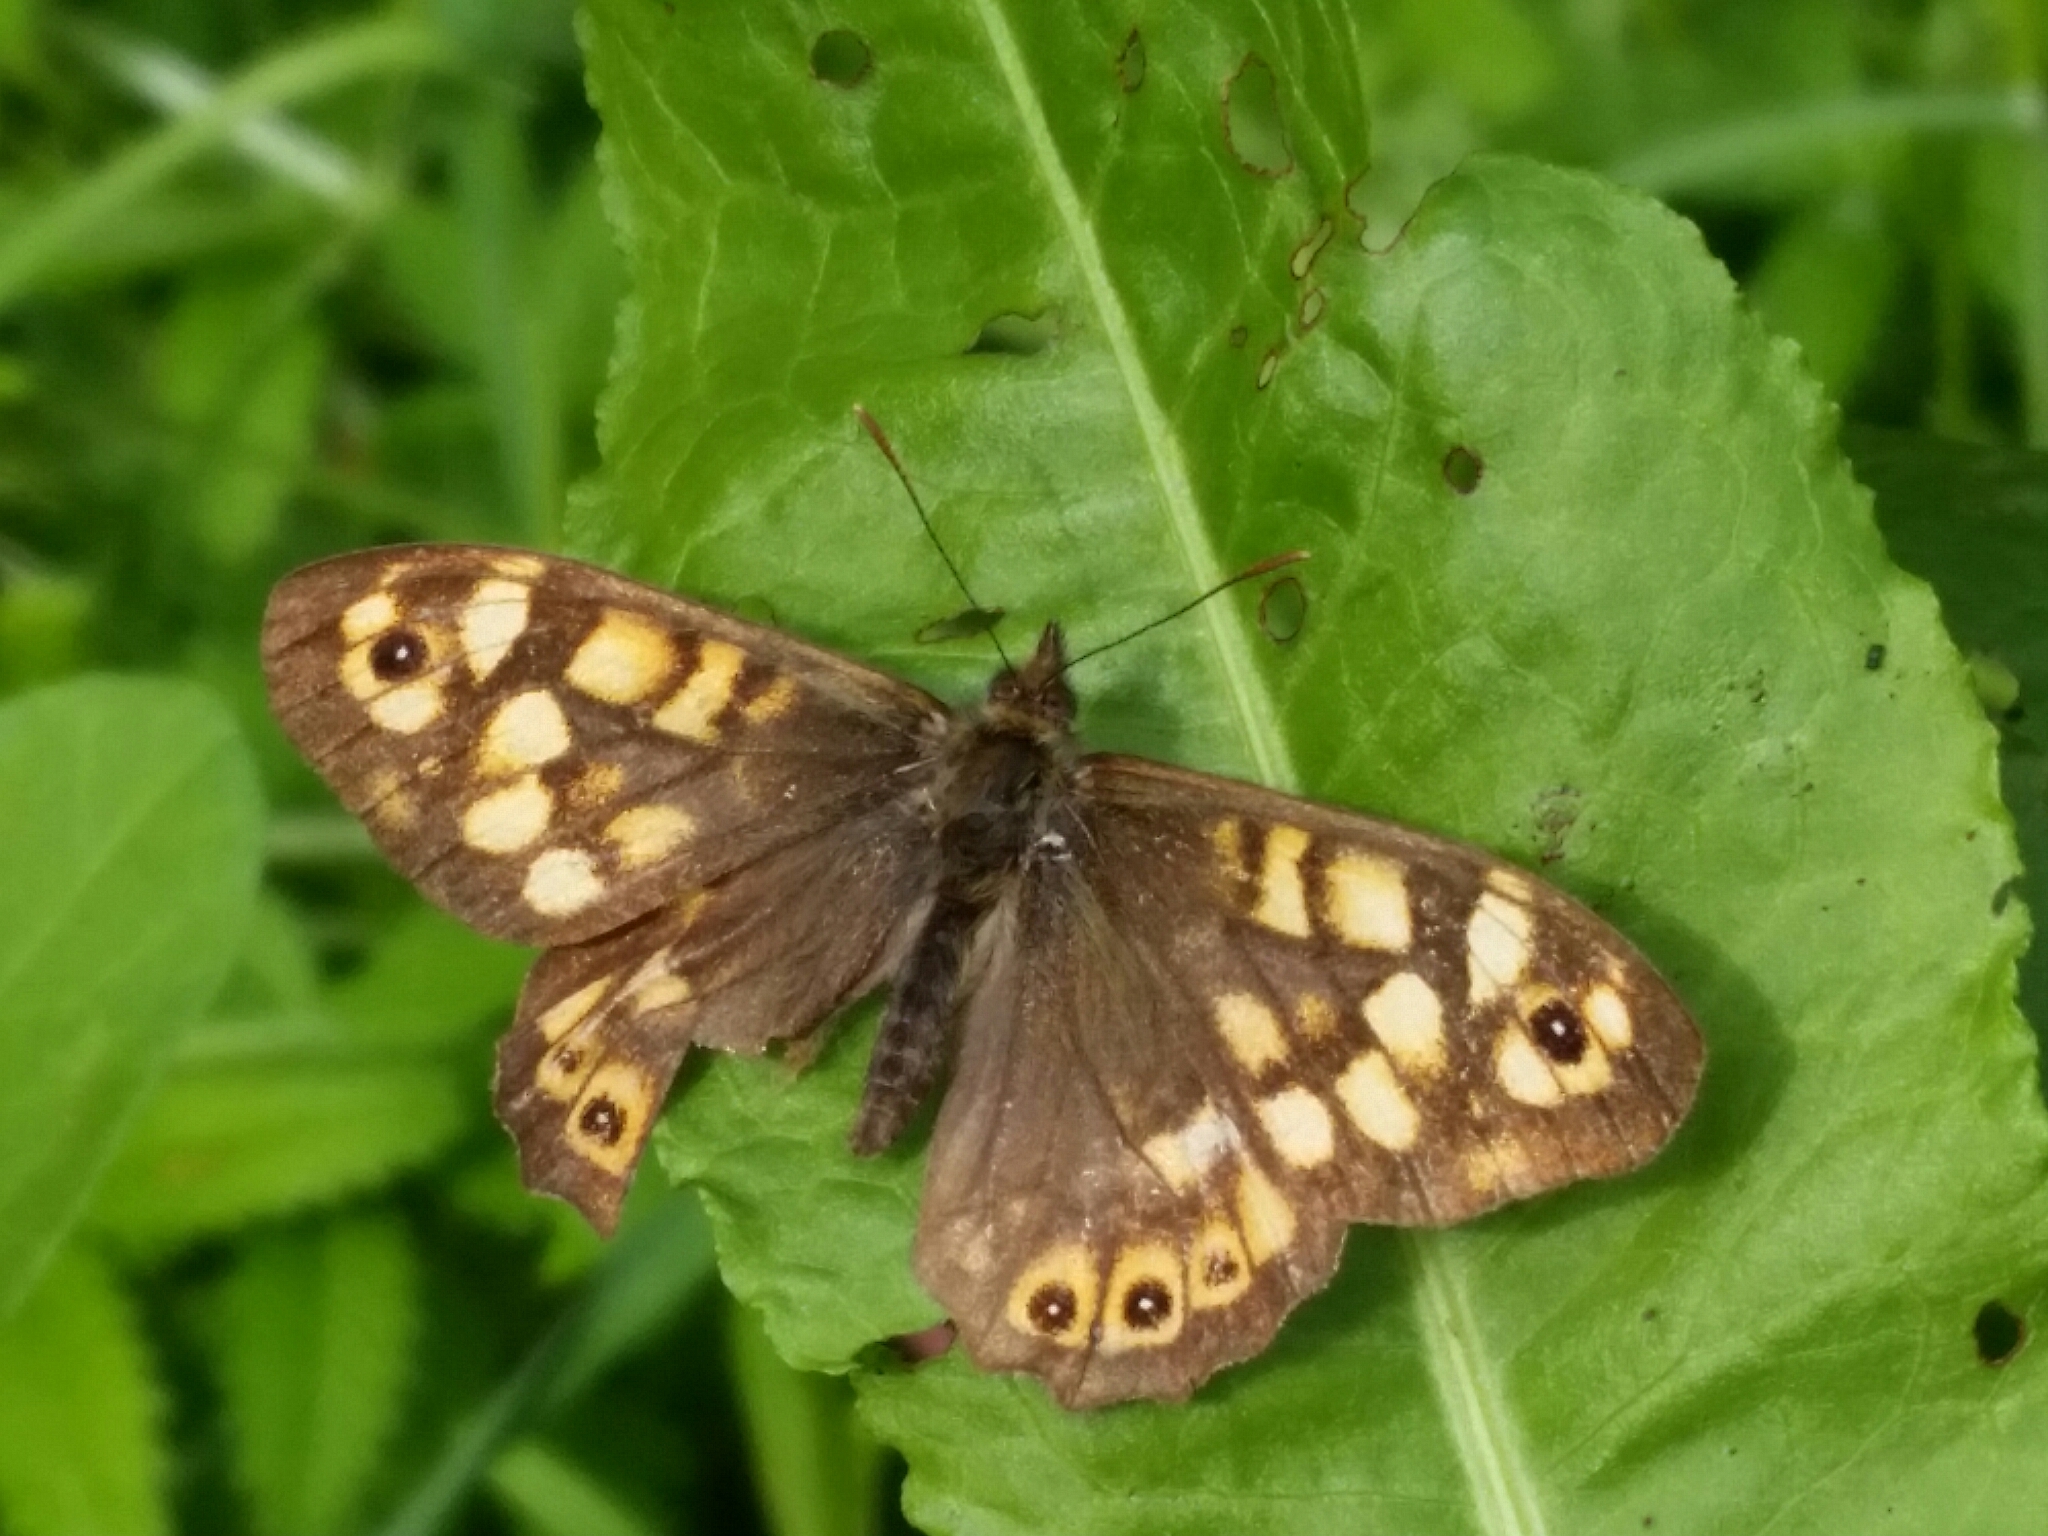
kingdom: Animalia
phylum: Arthropoda
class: Insecta
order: Lepidoptera
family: Nymphalidae
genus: Pararge
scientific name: Pararge aegeria
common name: Speckled wood
